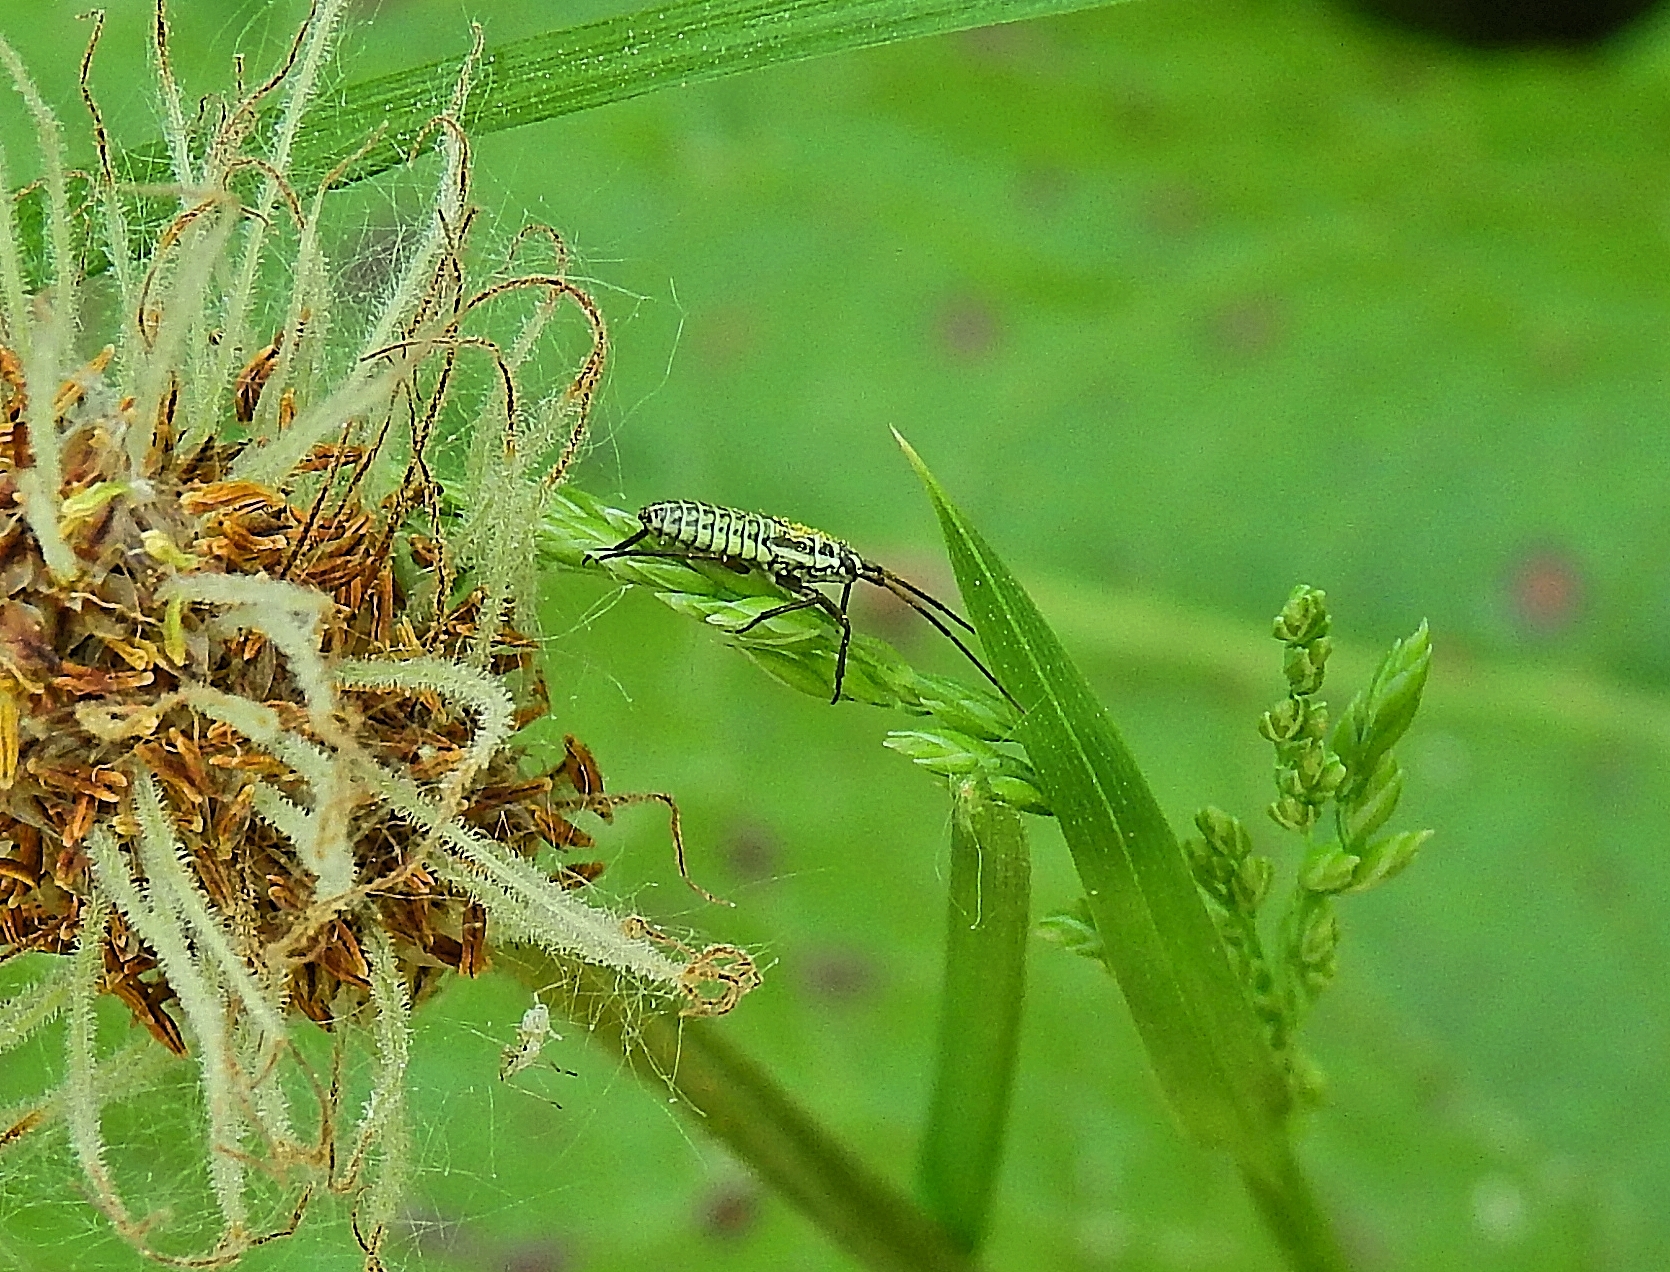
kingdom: Animalia
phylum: Arthropoda
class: Insecta
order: Hemiptera
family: Miridae
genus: Leptopterna
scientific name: Leptopterna dolabrata
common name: Meadow plant bug
